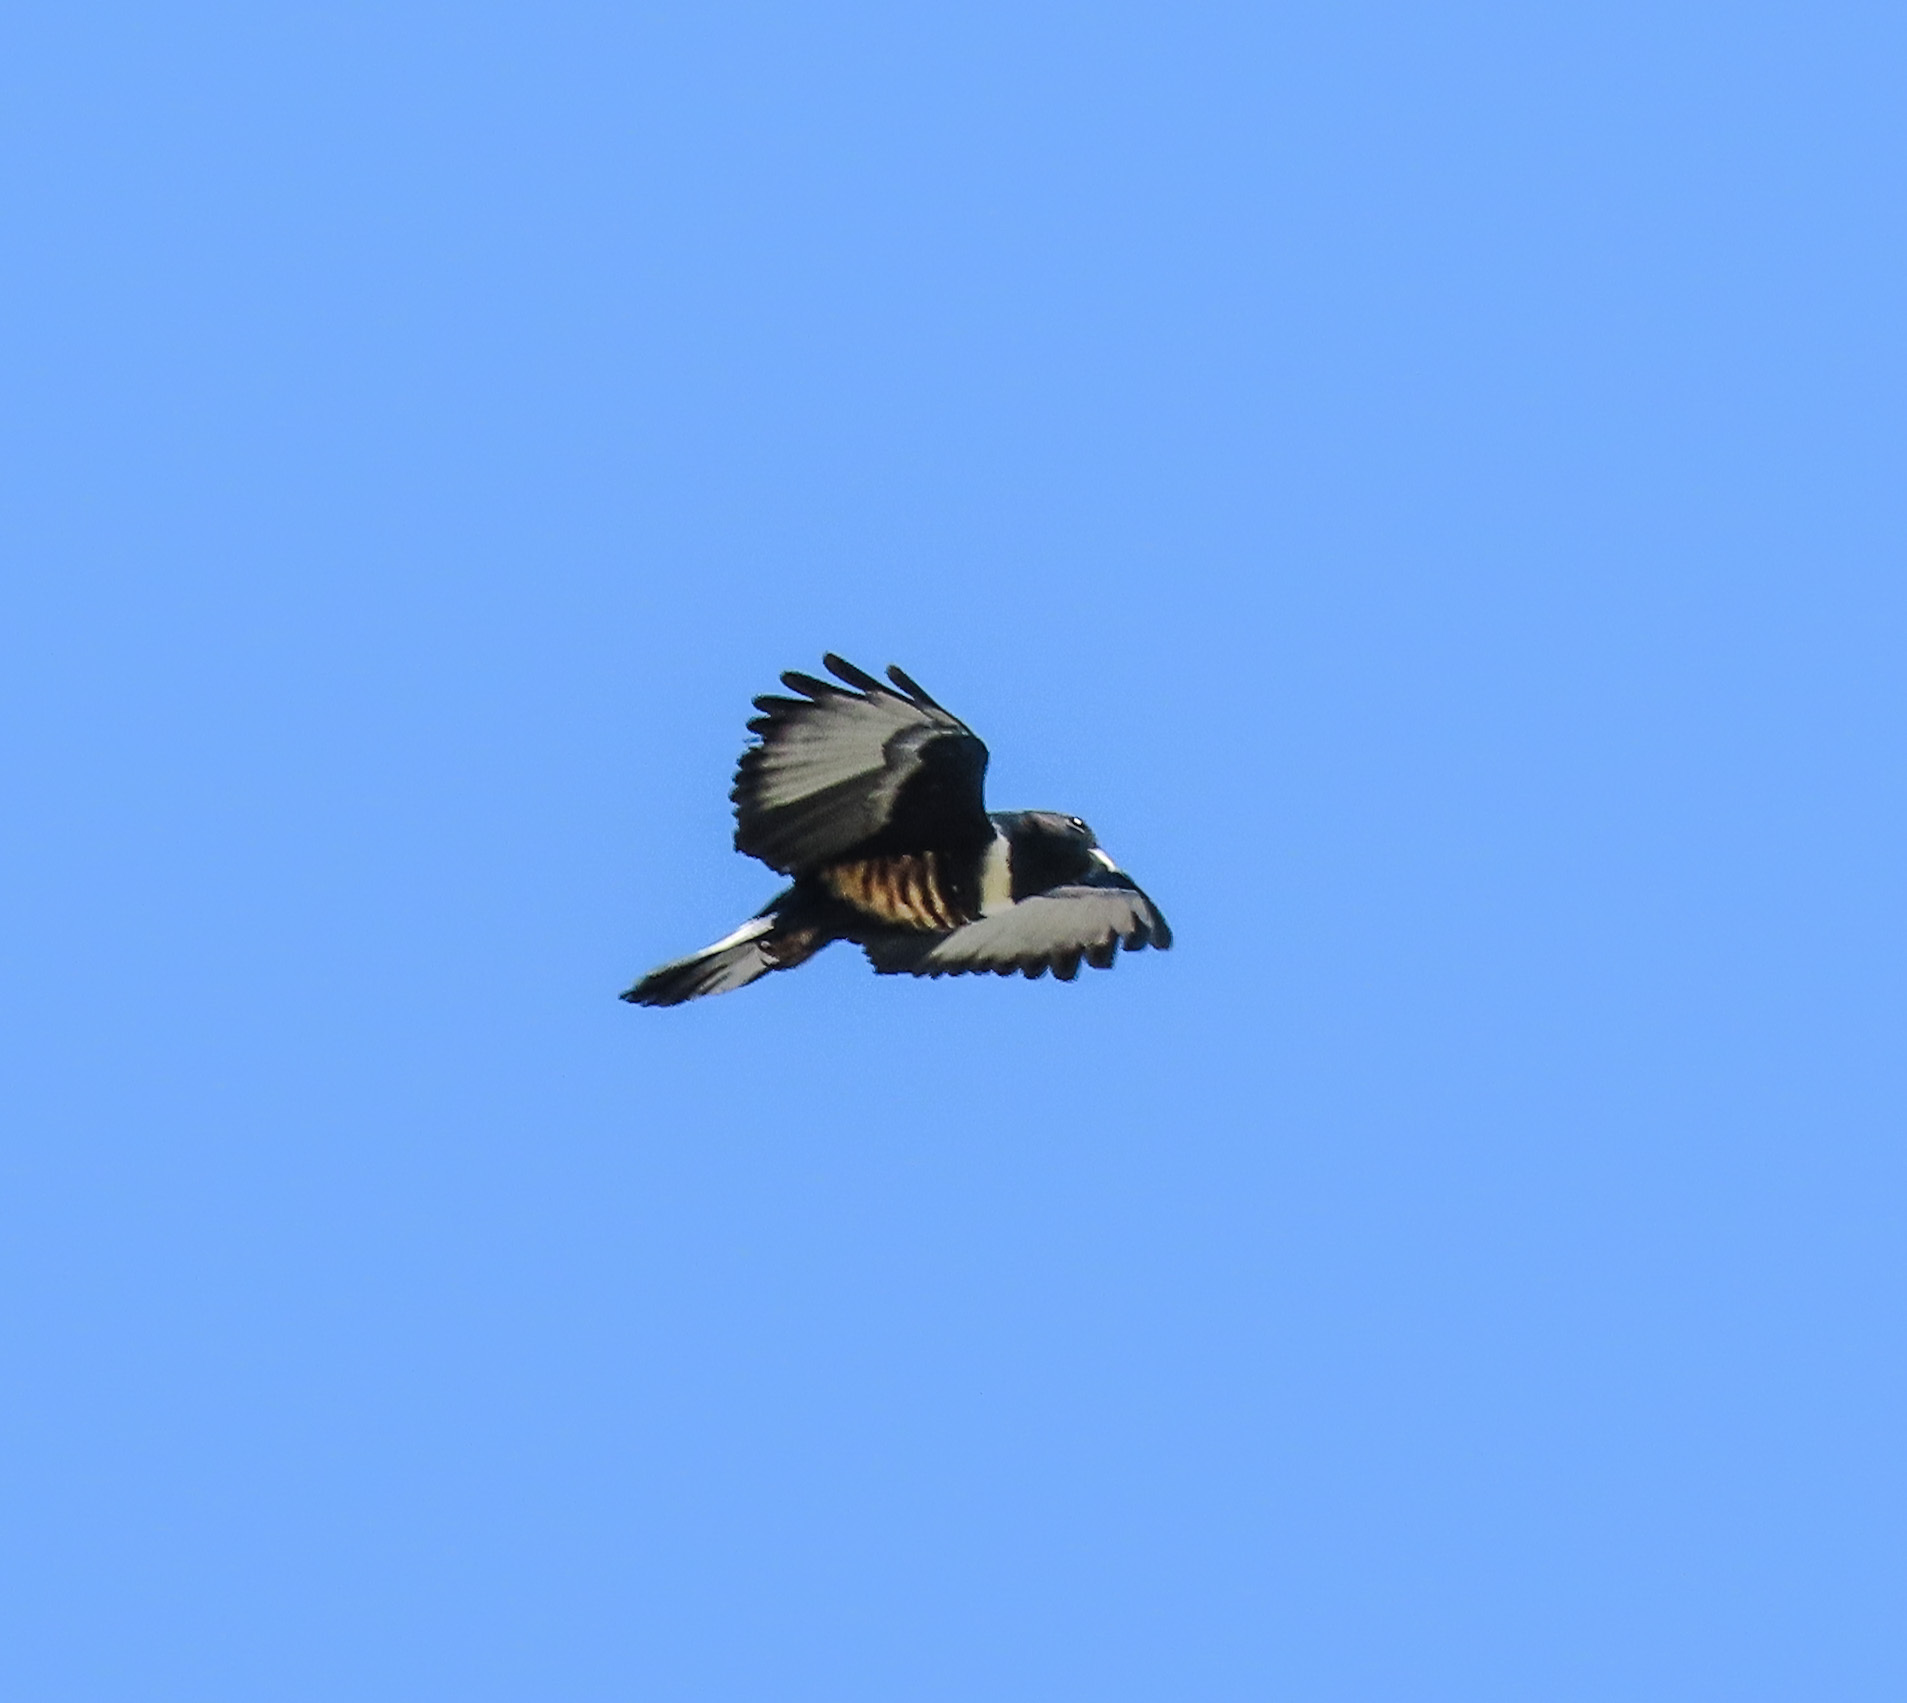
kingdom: Animalia
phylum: Chordata
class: Aves
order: Accipitriformes
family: Accipitridae
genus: Aviceda
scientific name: Aviceda leuphotes
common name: Black baza
